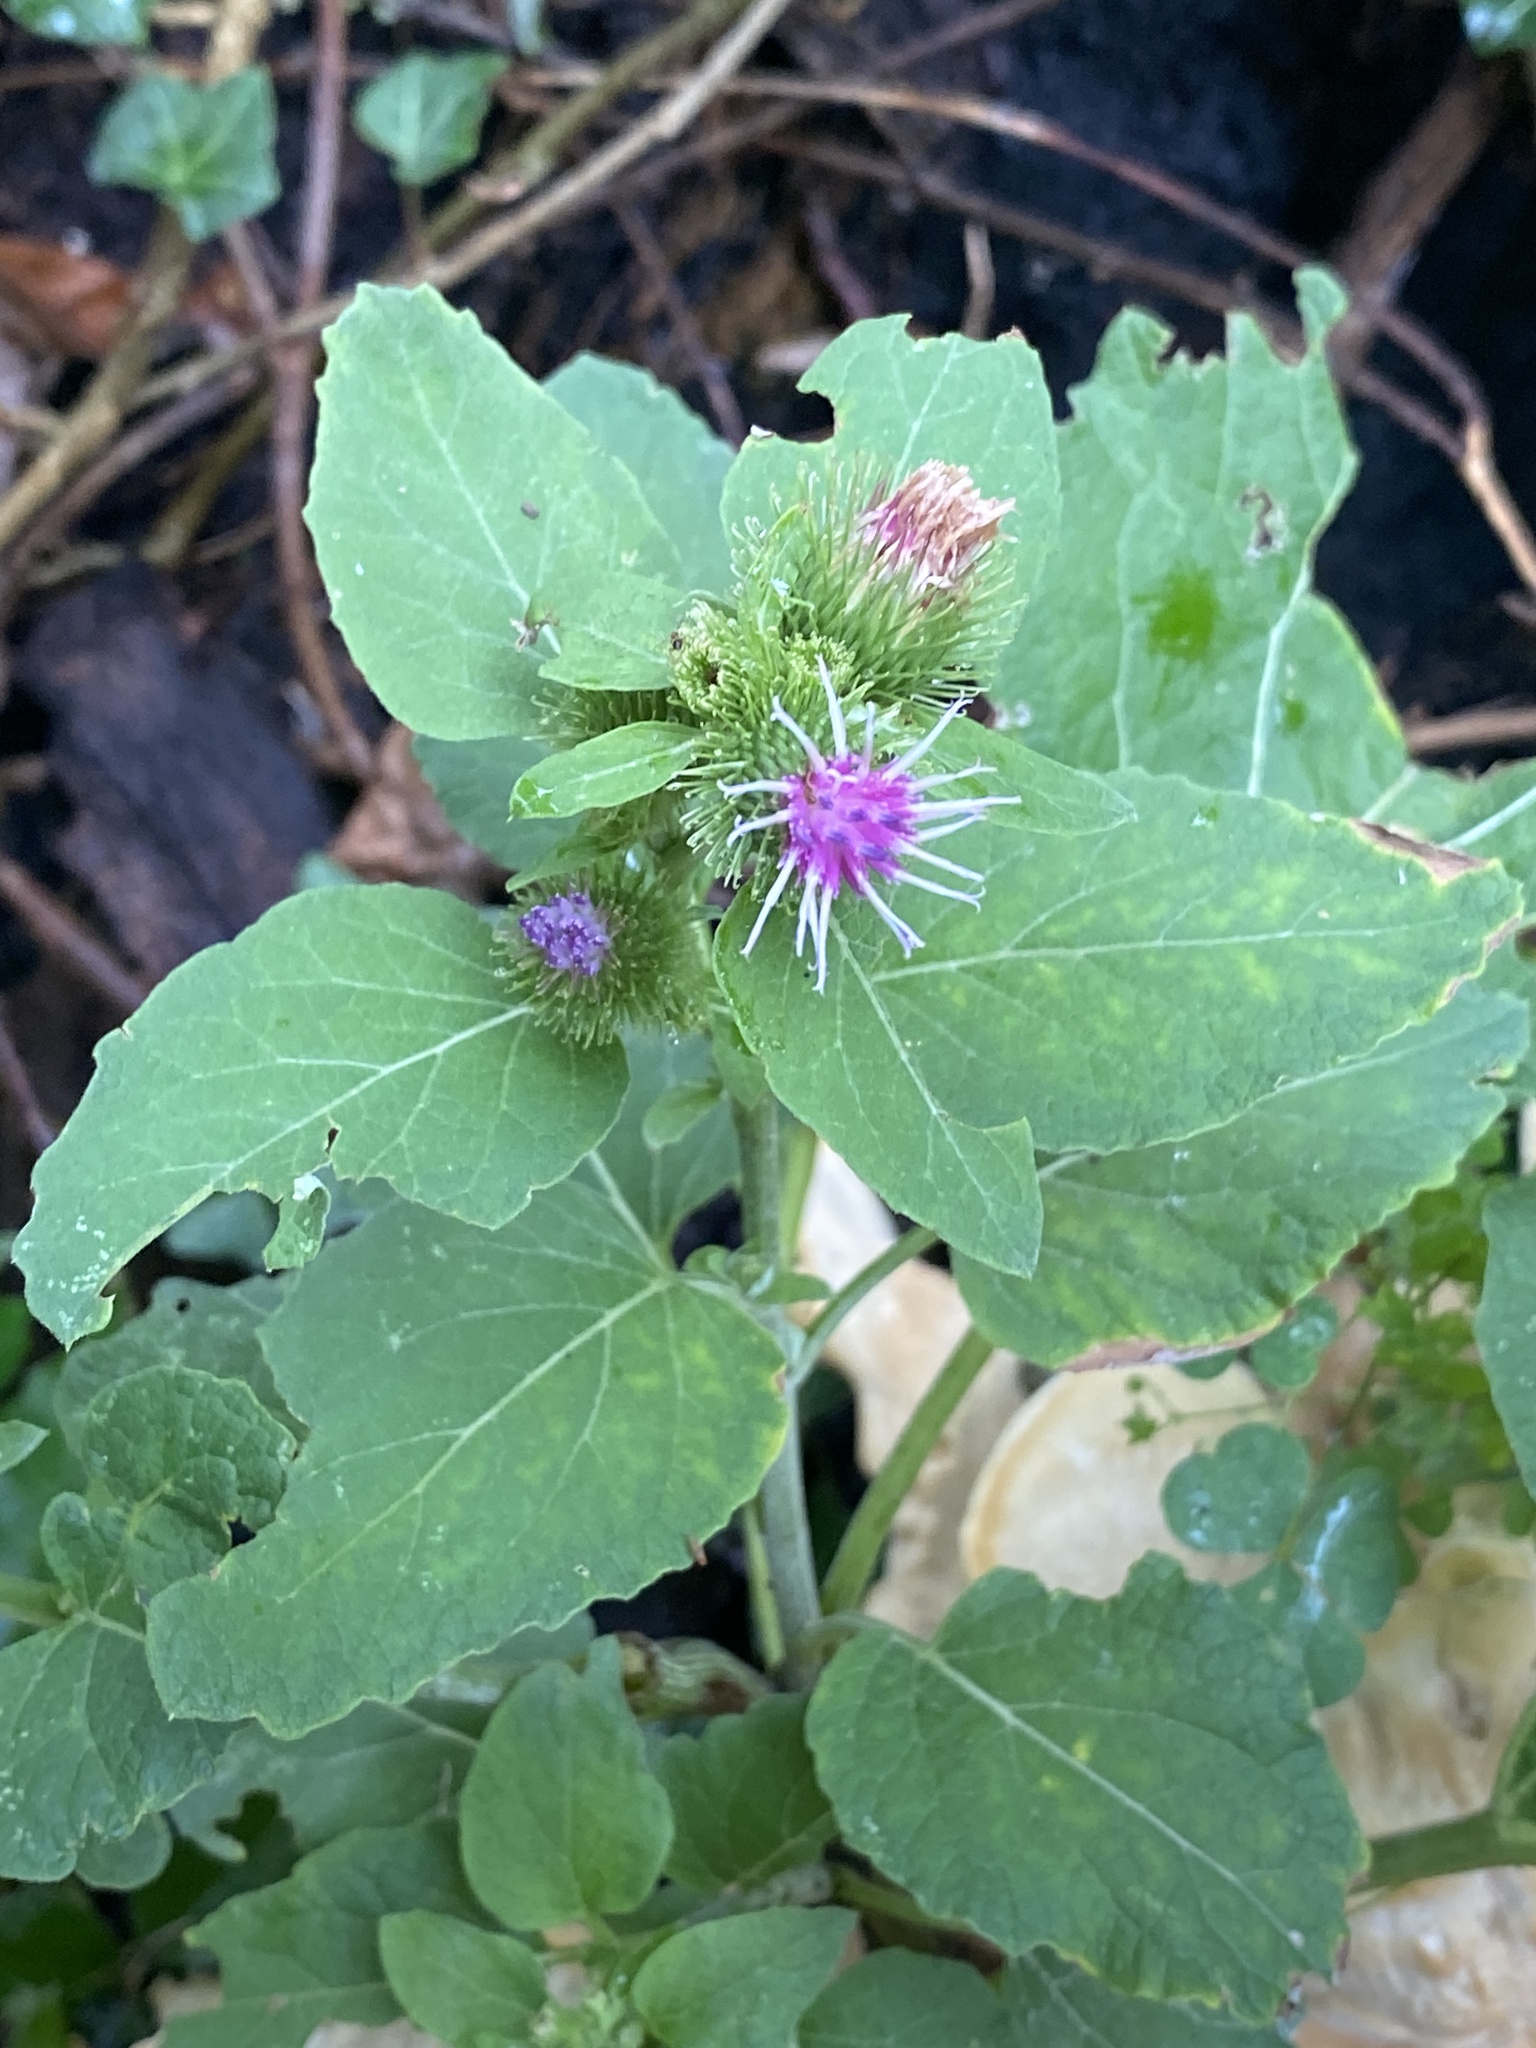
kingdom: Plantae
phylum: Tracheophyta
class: Magnoliopsida
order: Asterales
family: Asteraceae
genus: Arctium
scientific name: Arctium minus
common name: Lesser burdock
